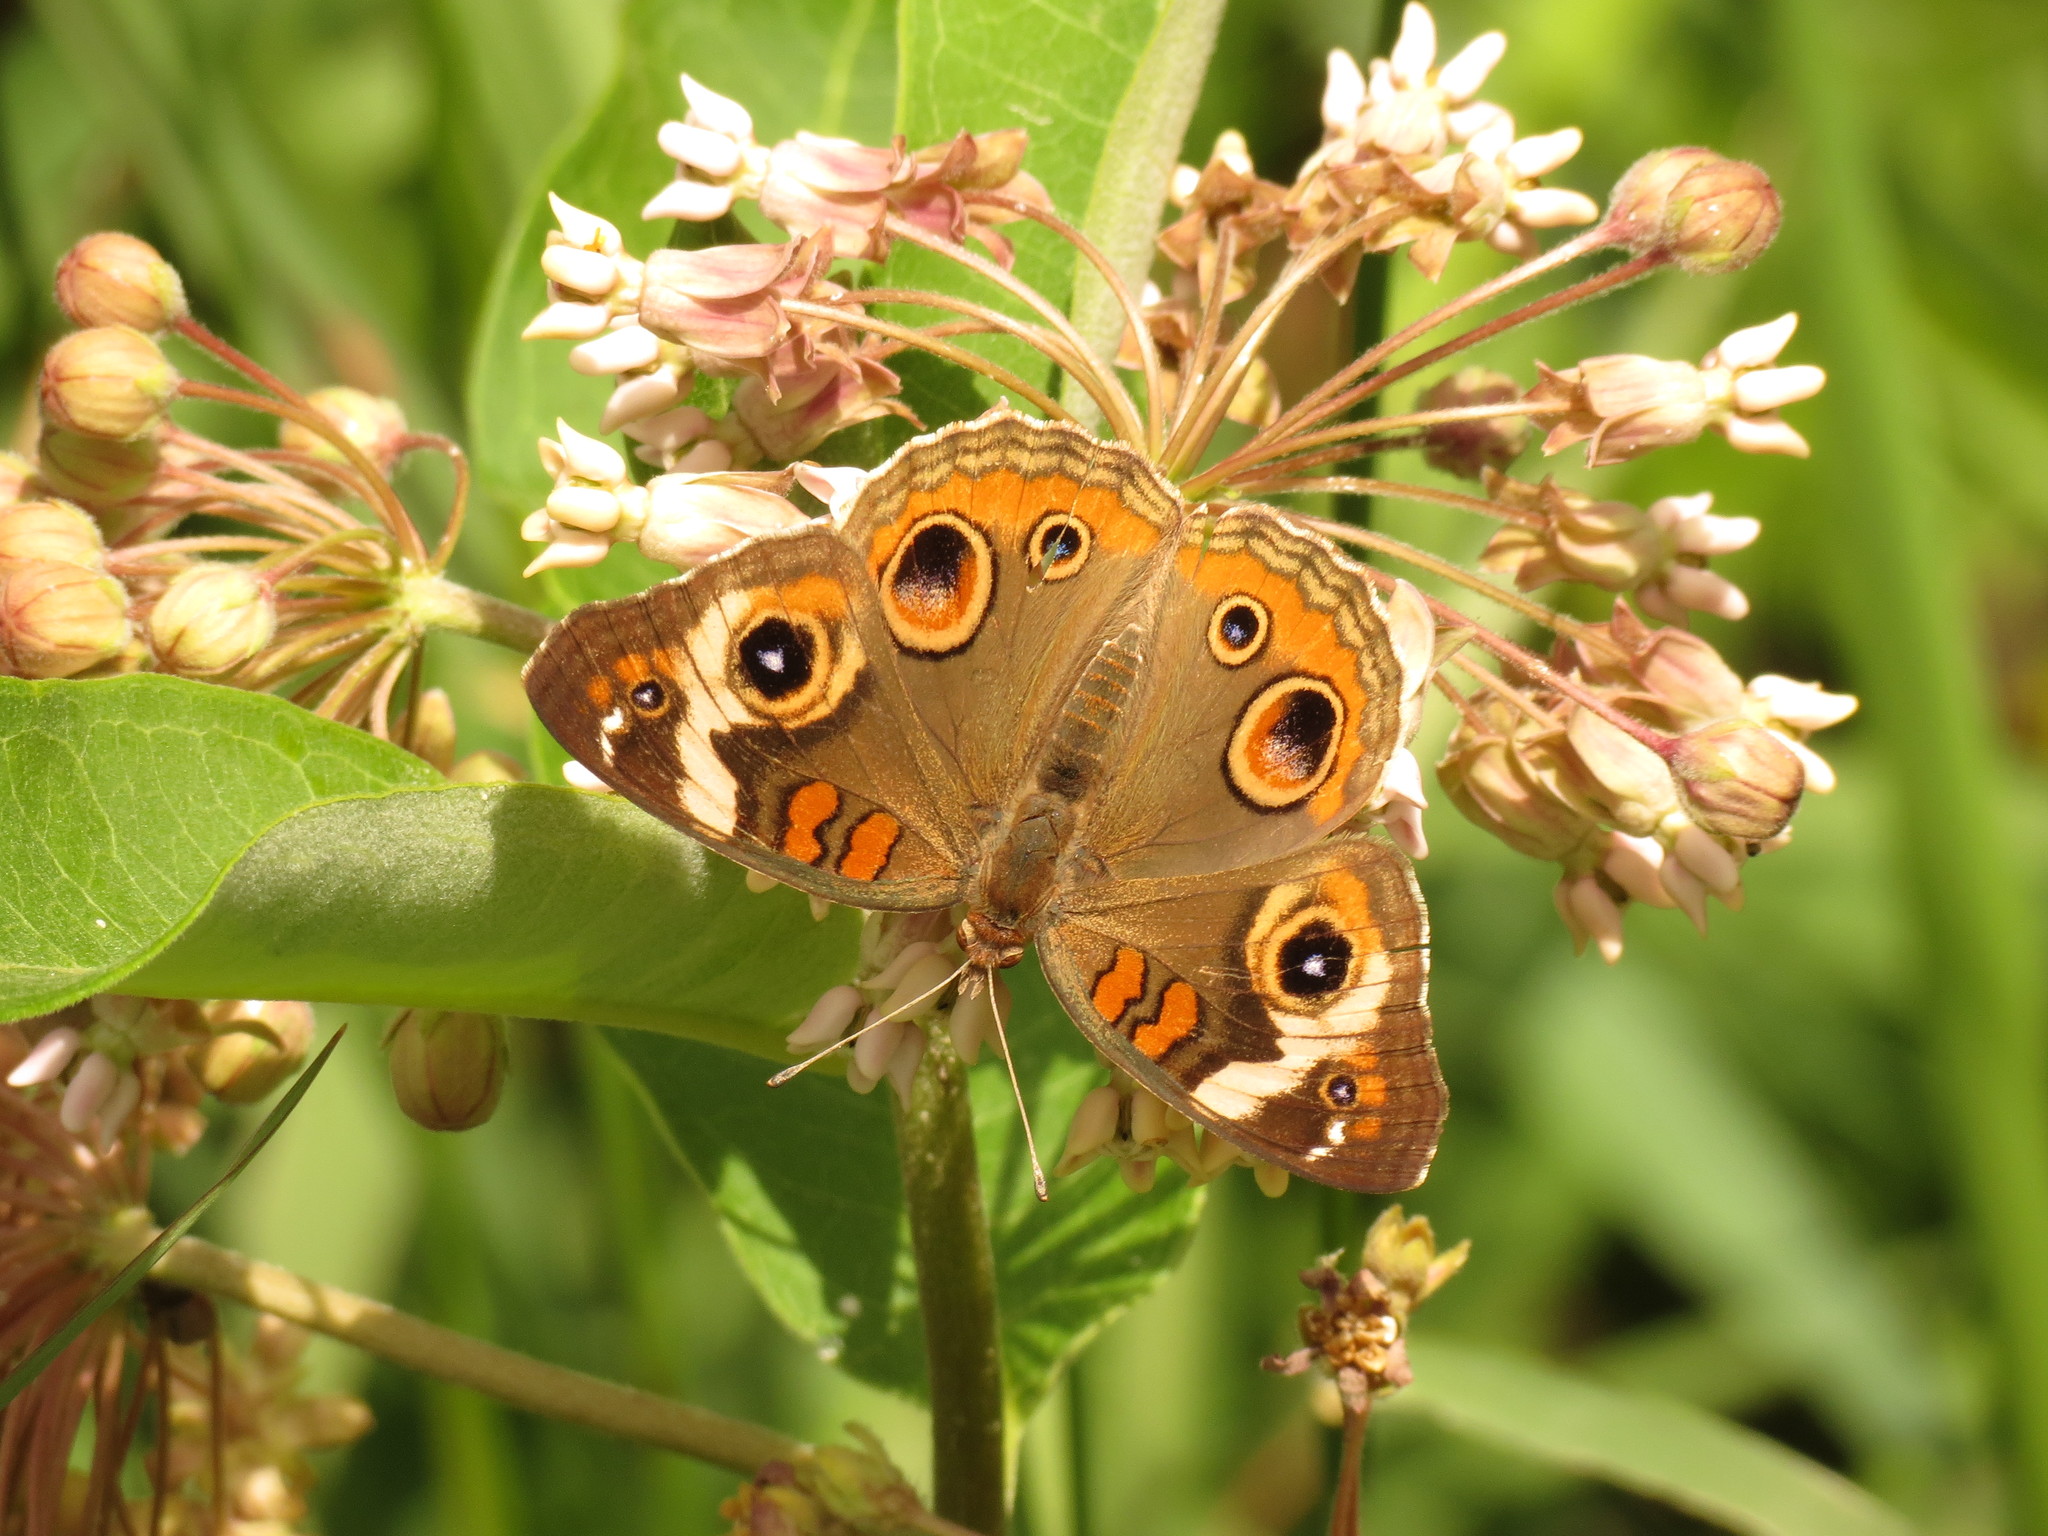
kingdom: Animalia
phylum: Arthropoda
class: Insecta
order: Lepidoptera
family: Nymphalidae
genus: Junonia
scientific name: Junonia coenia
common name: Common buckeye
